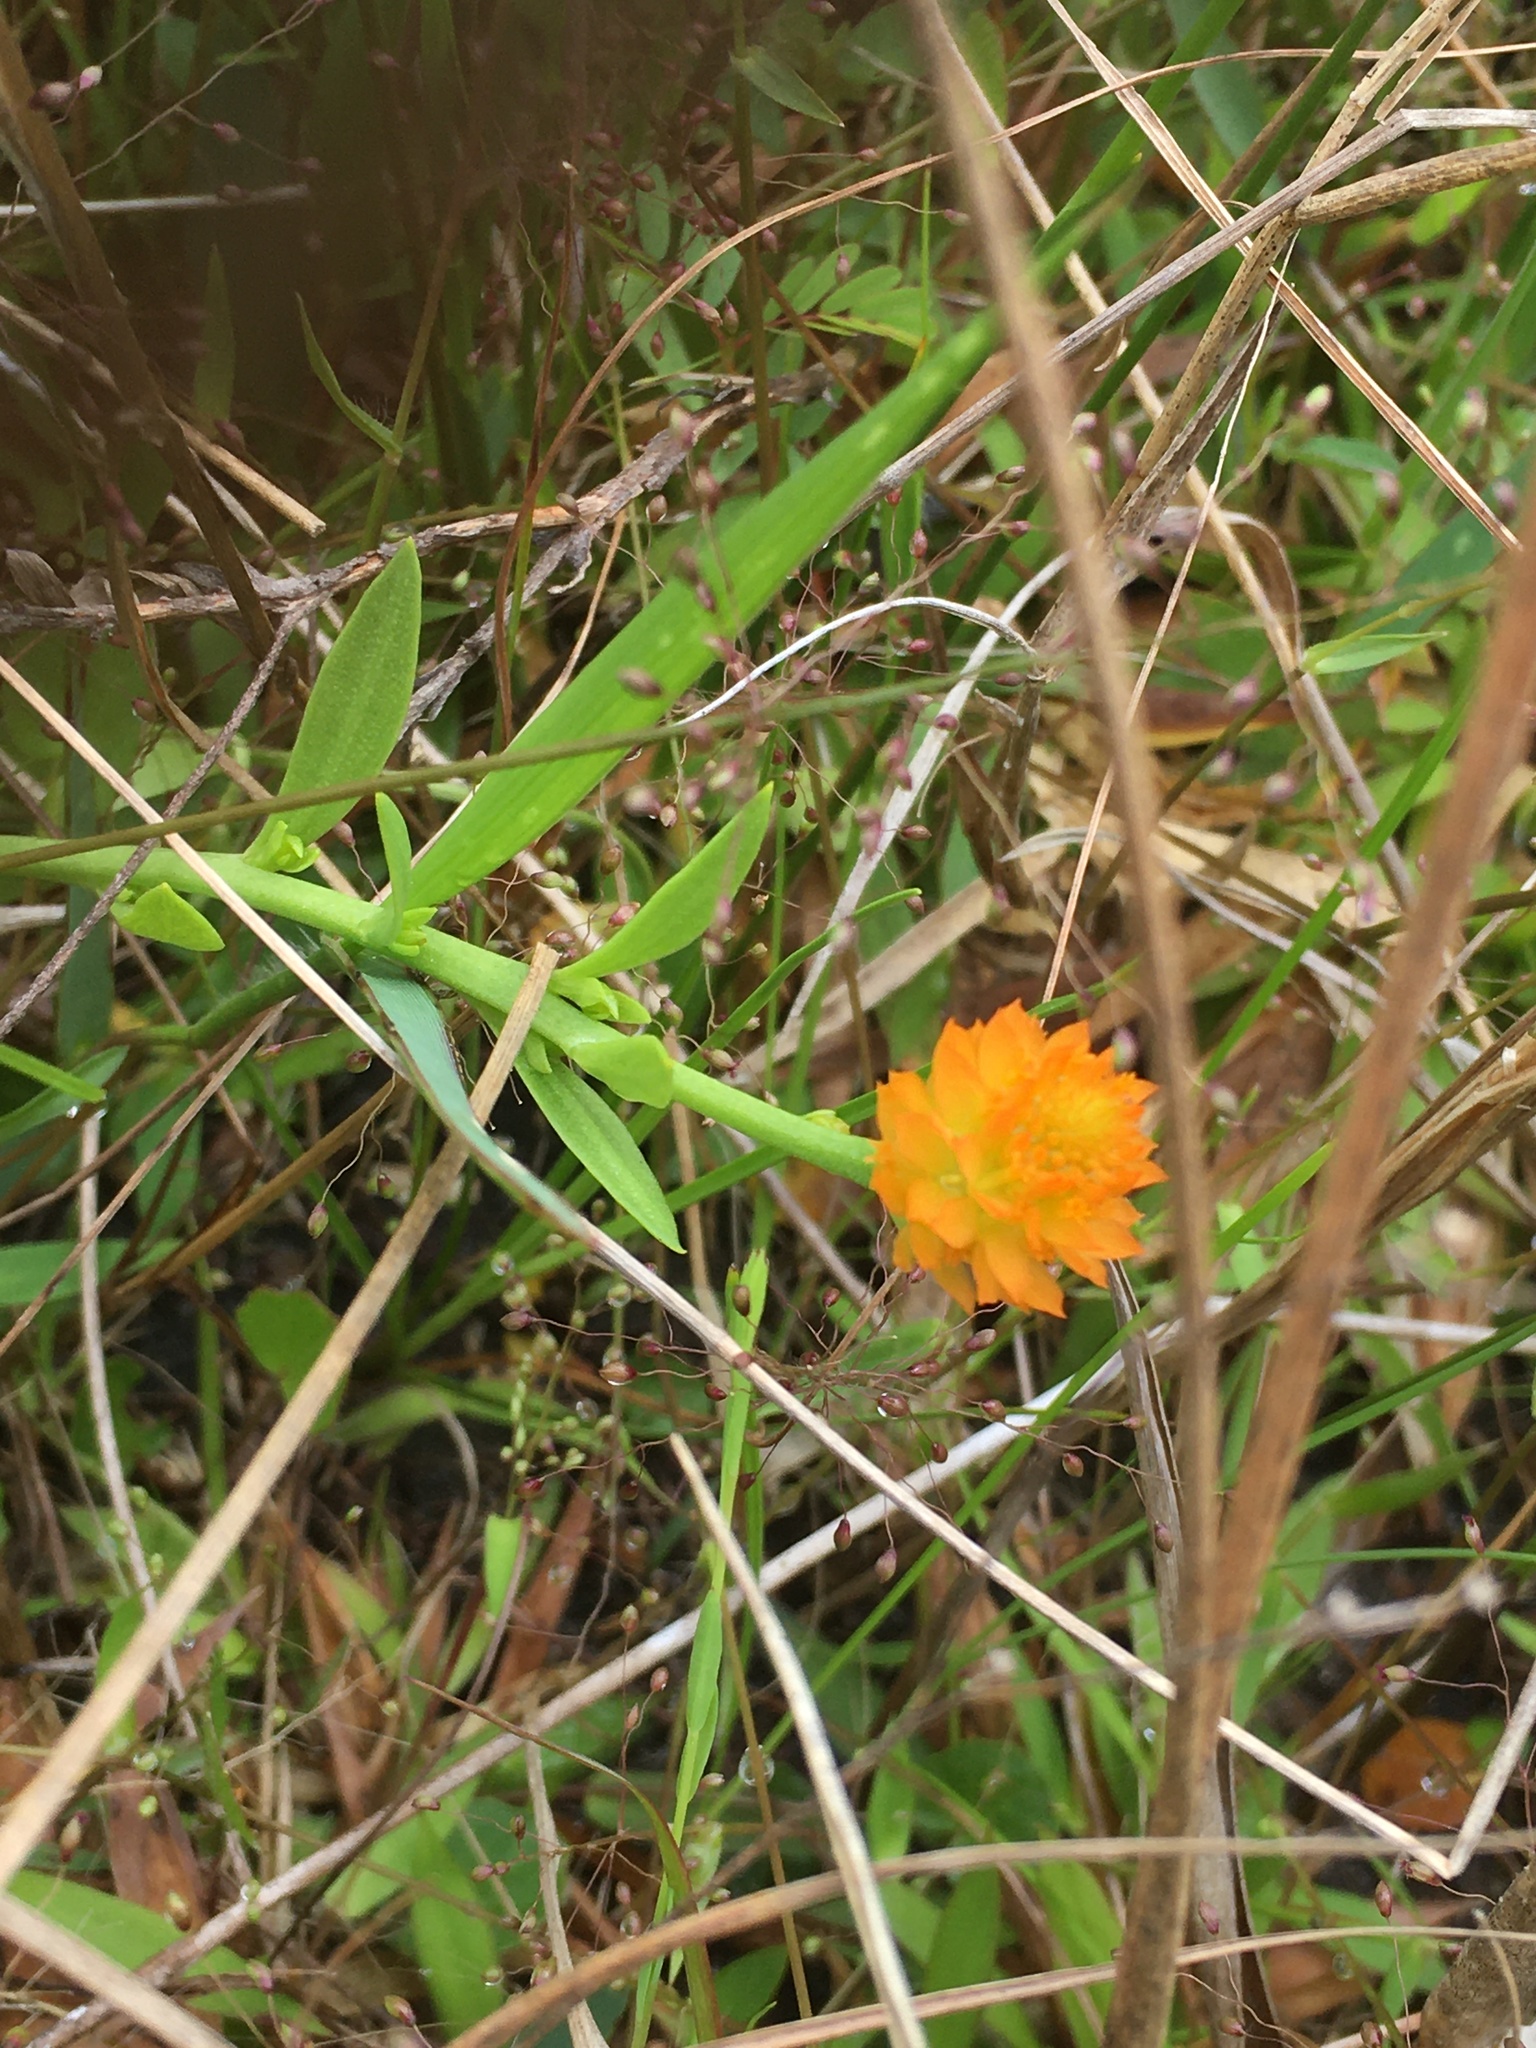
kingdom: Plantae
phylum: Tracheophyta
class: Magnoliopsida
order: Fabales
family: Polygalaceae
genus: Polygala
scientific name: Polygala lutea
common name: Orange milkwort
